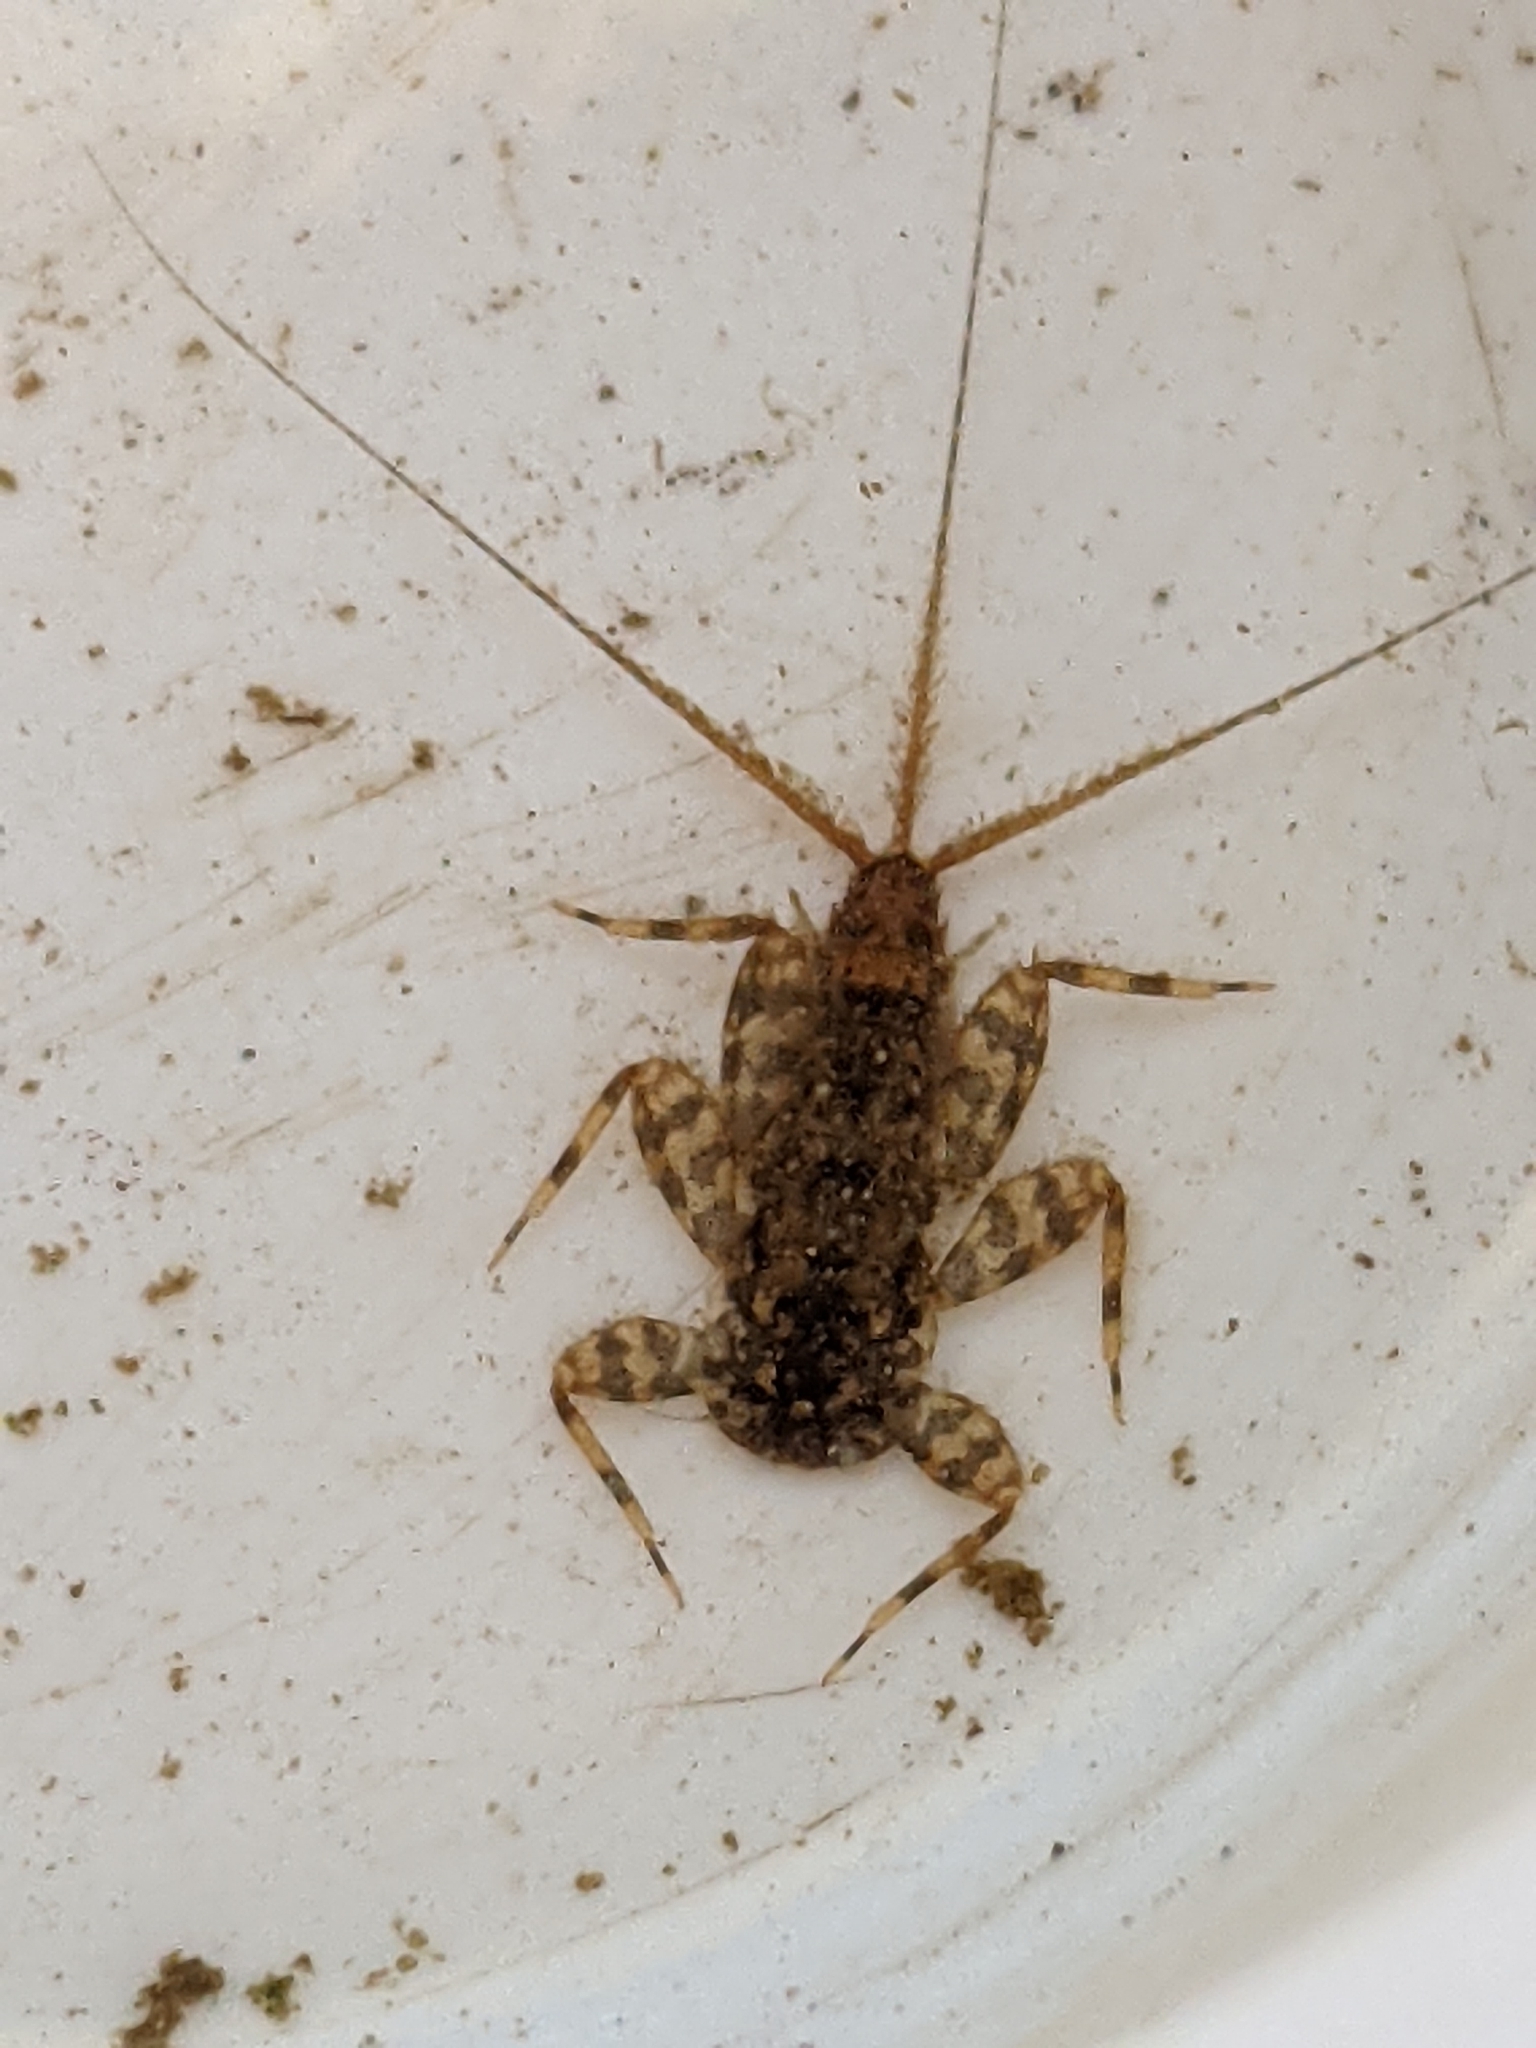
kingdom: Animalia
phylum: Arthropoda
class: Insecta
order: Ephemeroptera
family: Heptageniidae
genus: Maccaffertium
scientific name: Maccaffertium mediopunctatum
